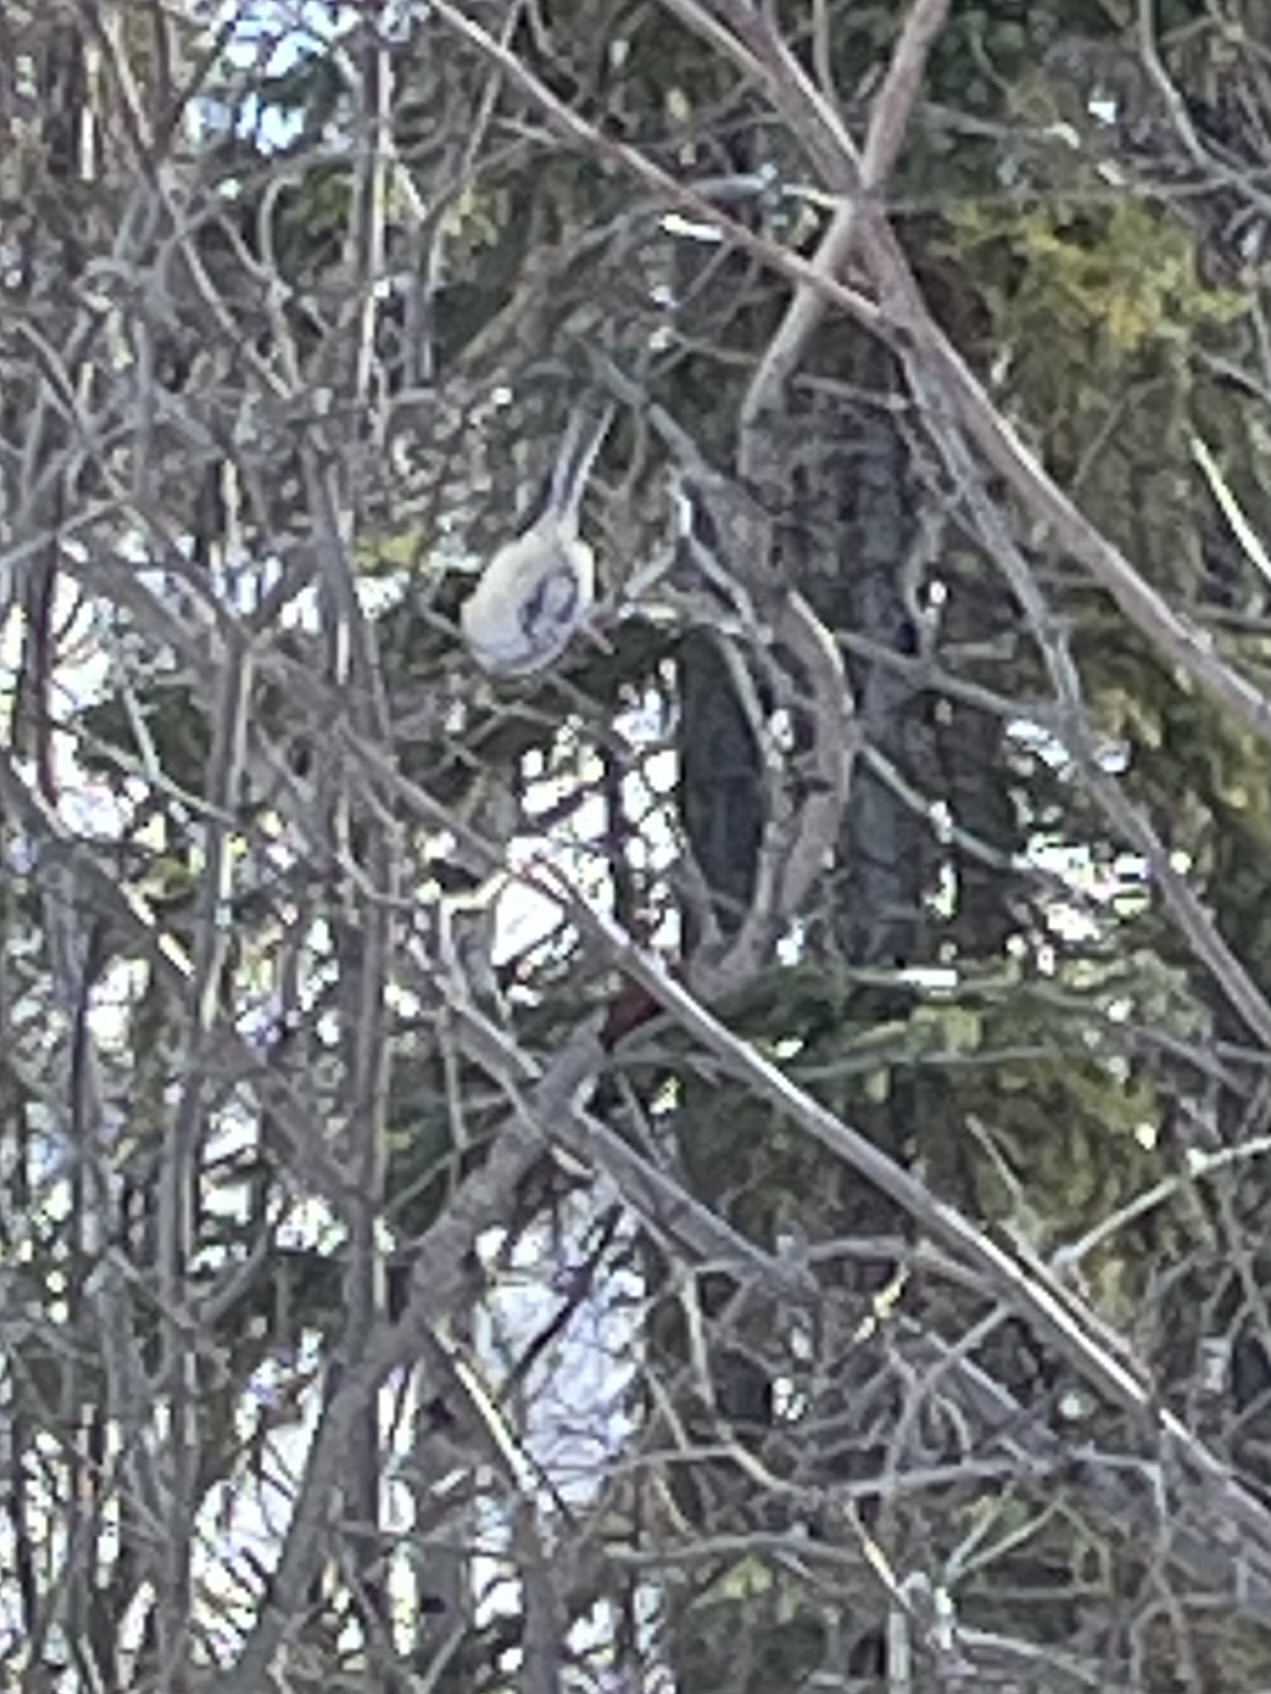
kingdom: Animalia
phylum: Chordata
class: Aves
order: Passeriformes
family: Paridae
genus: Poecile
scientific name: Poecile atricapillus
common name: Black-capped chickadee
